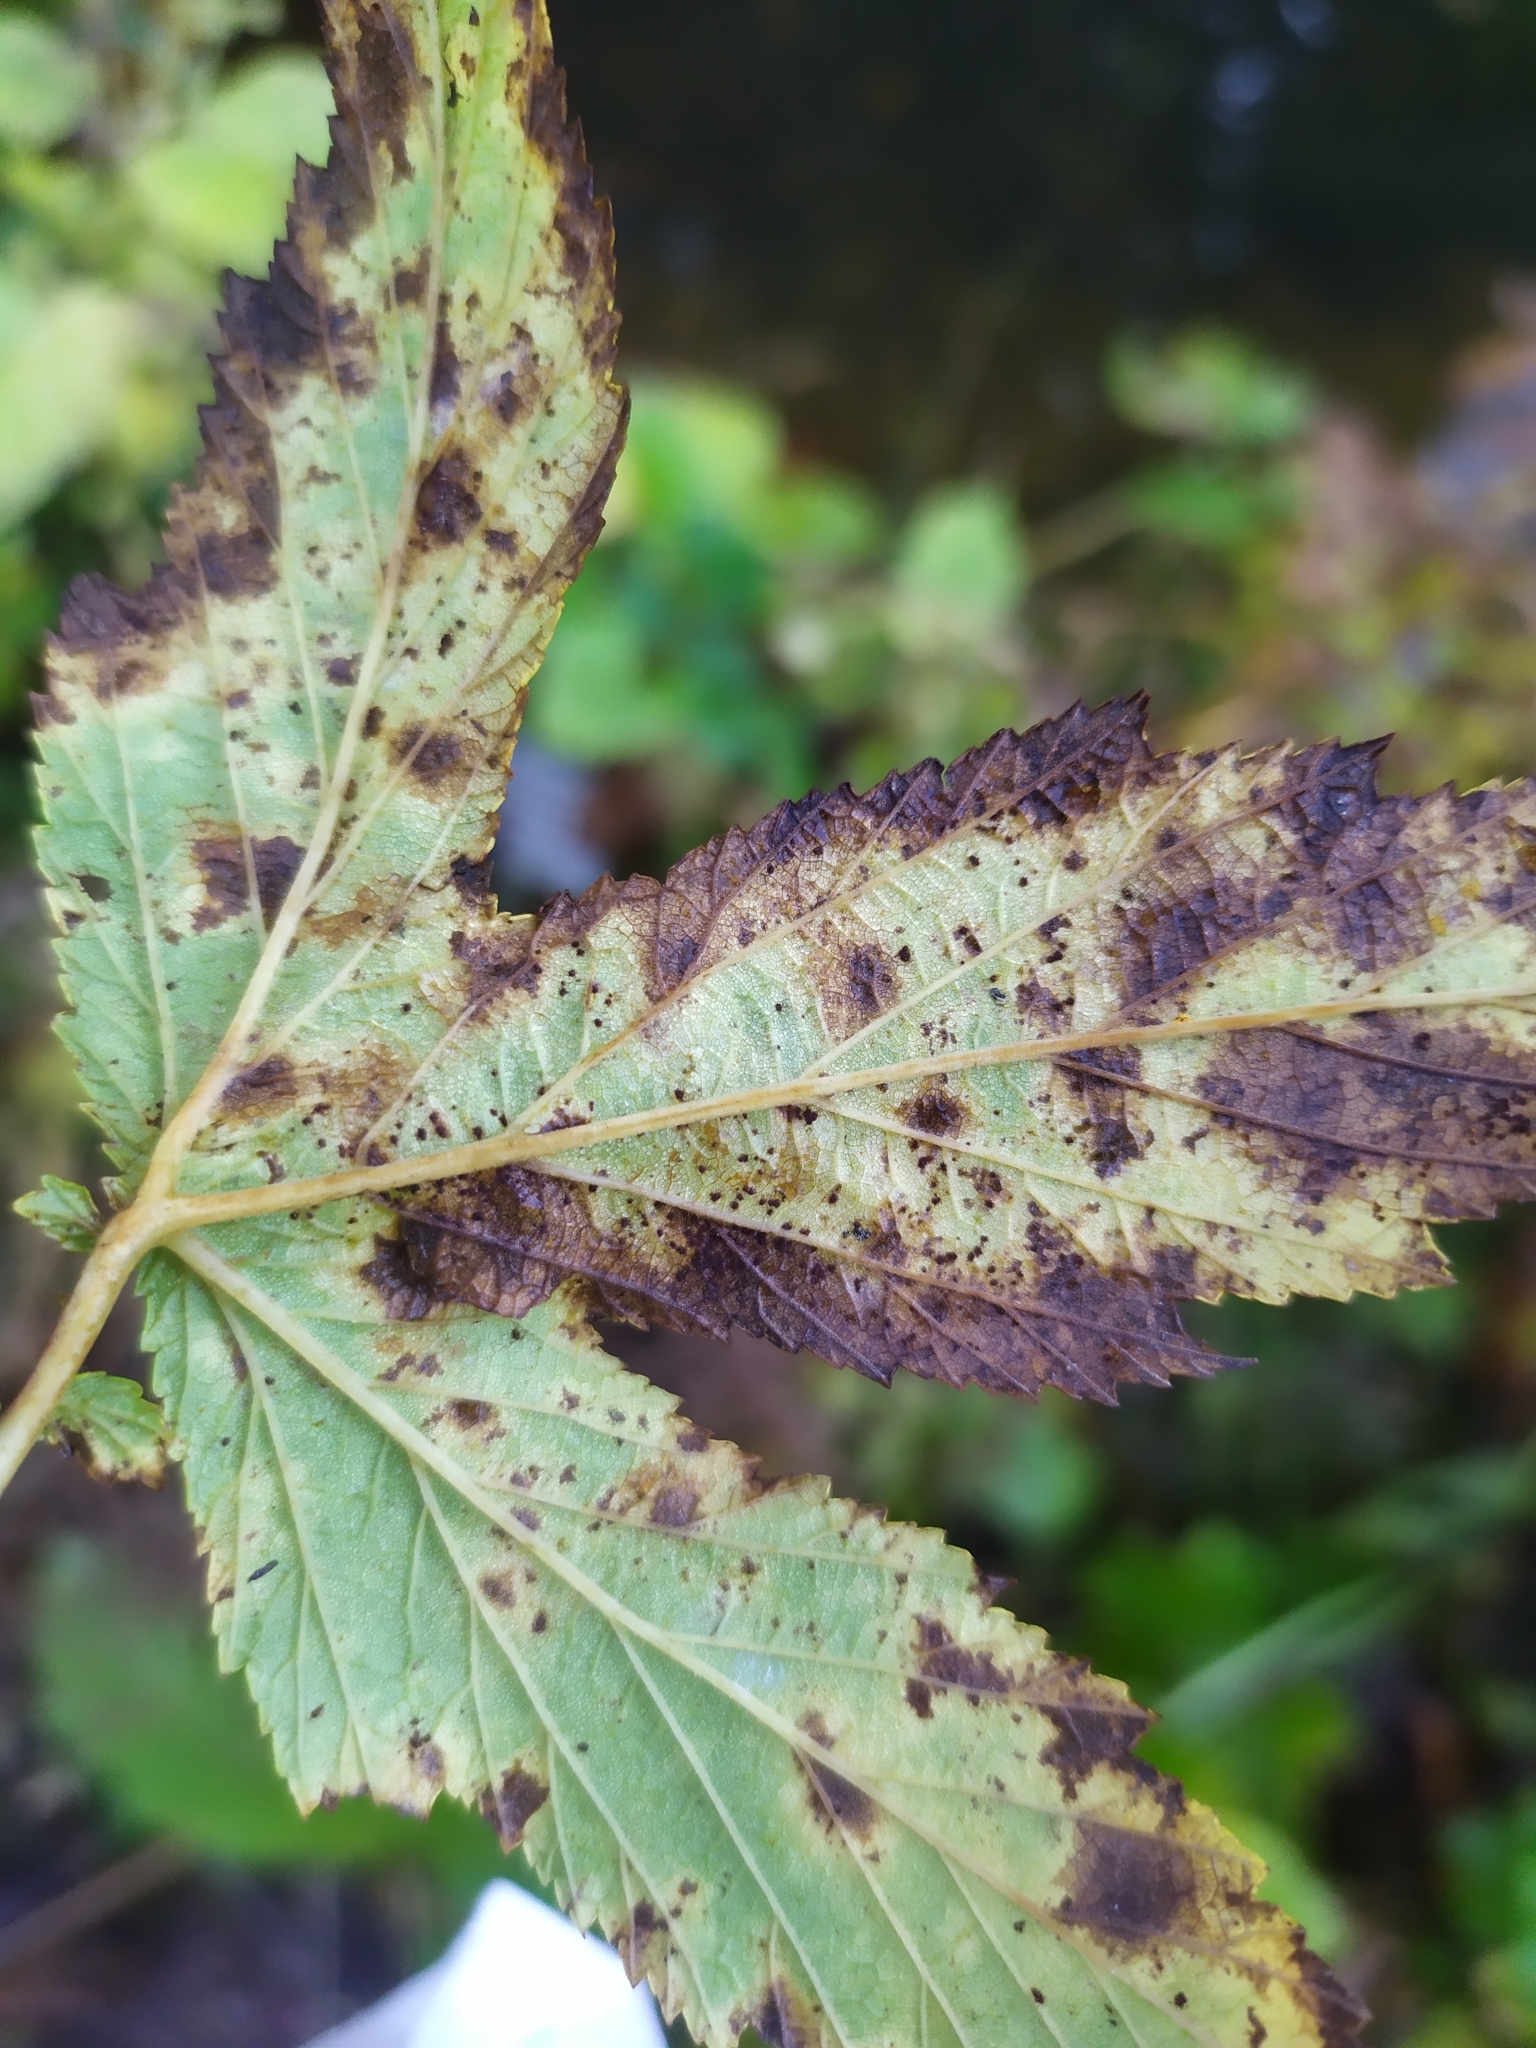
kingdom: Fungi
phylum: Basidiomycota
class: Pucciniomycetes
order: Pucciniales
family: Raveneliaceae
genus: Triphragmium
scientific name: Triphragmium ulmariae
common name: Meadowsweet rust
